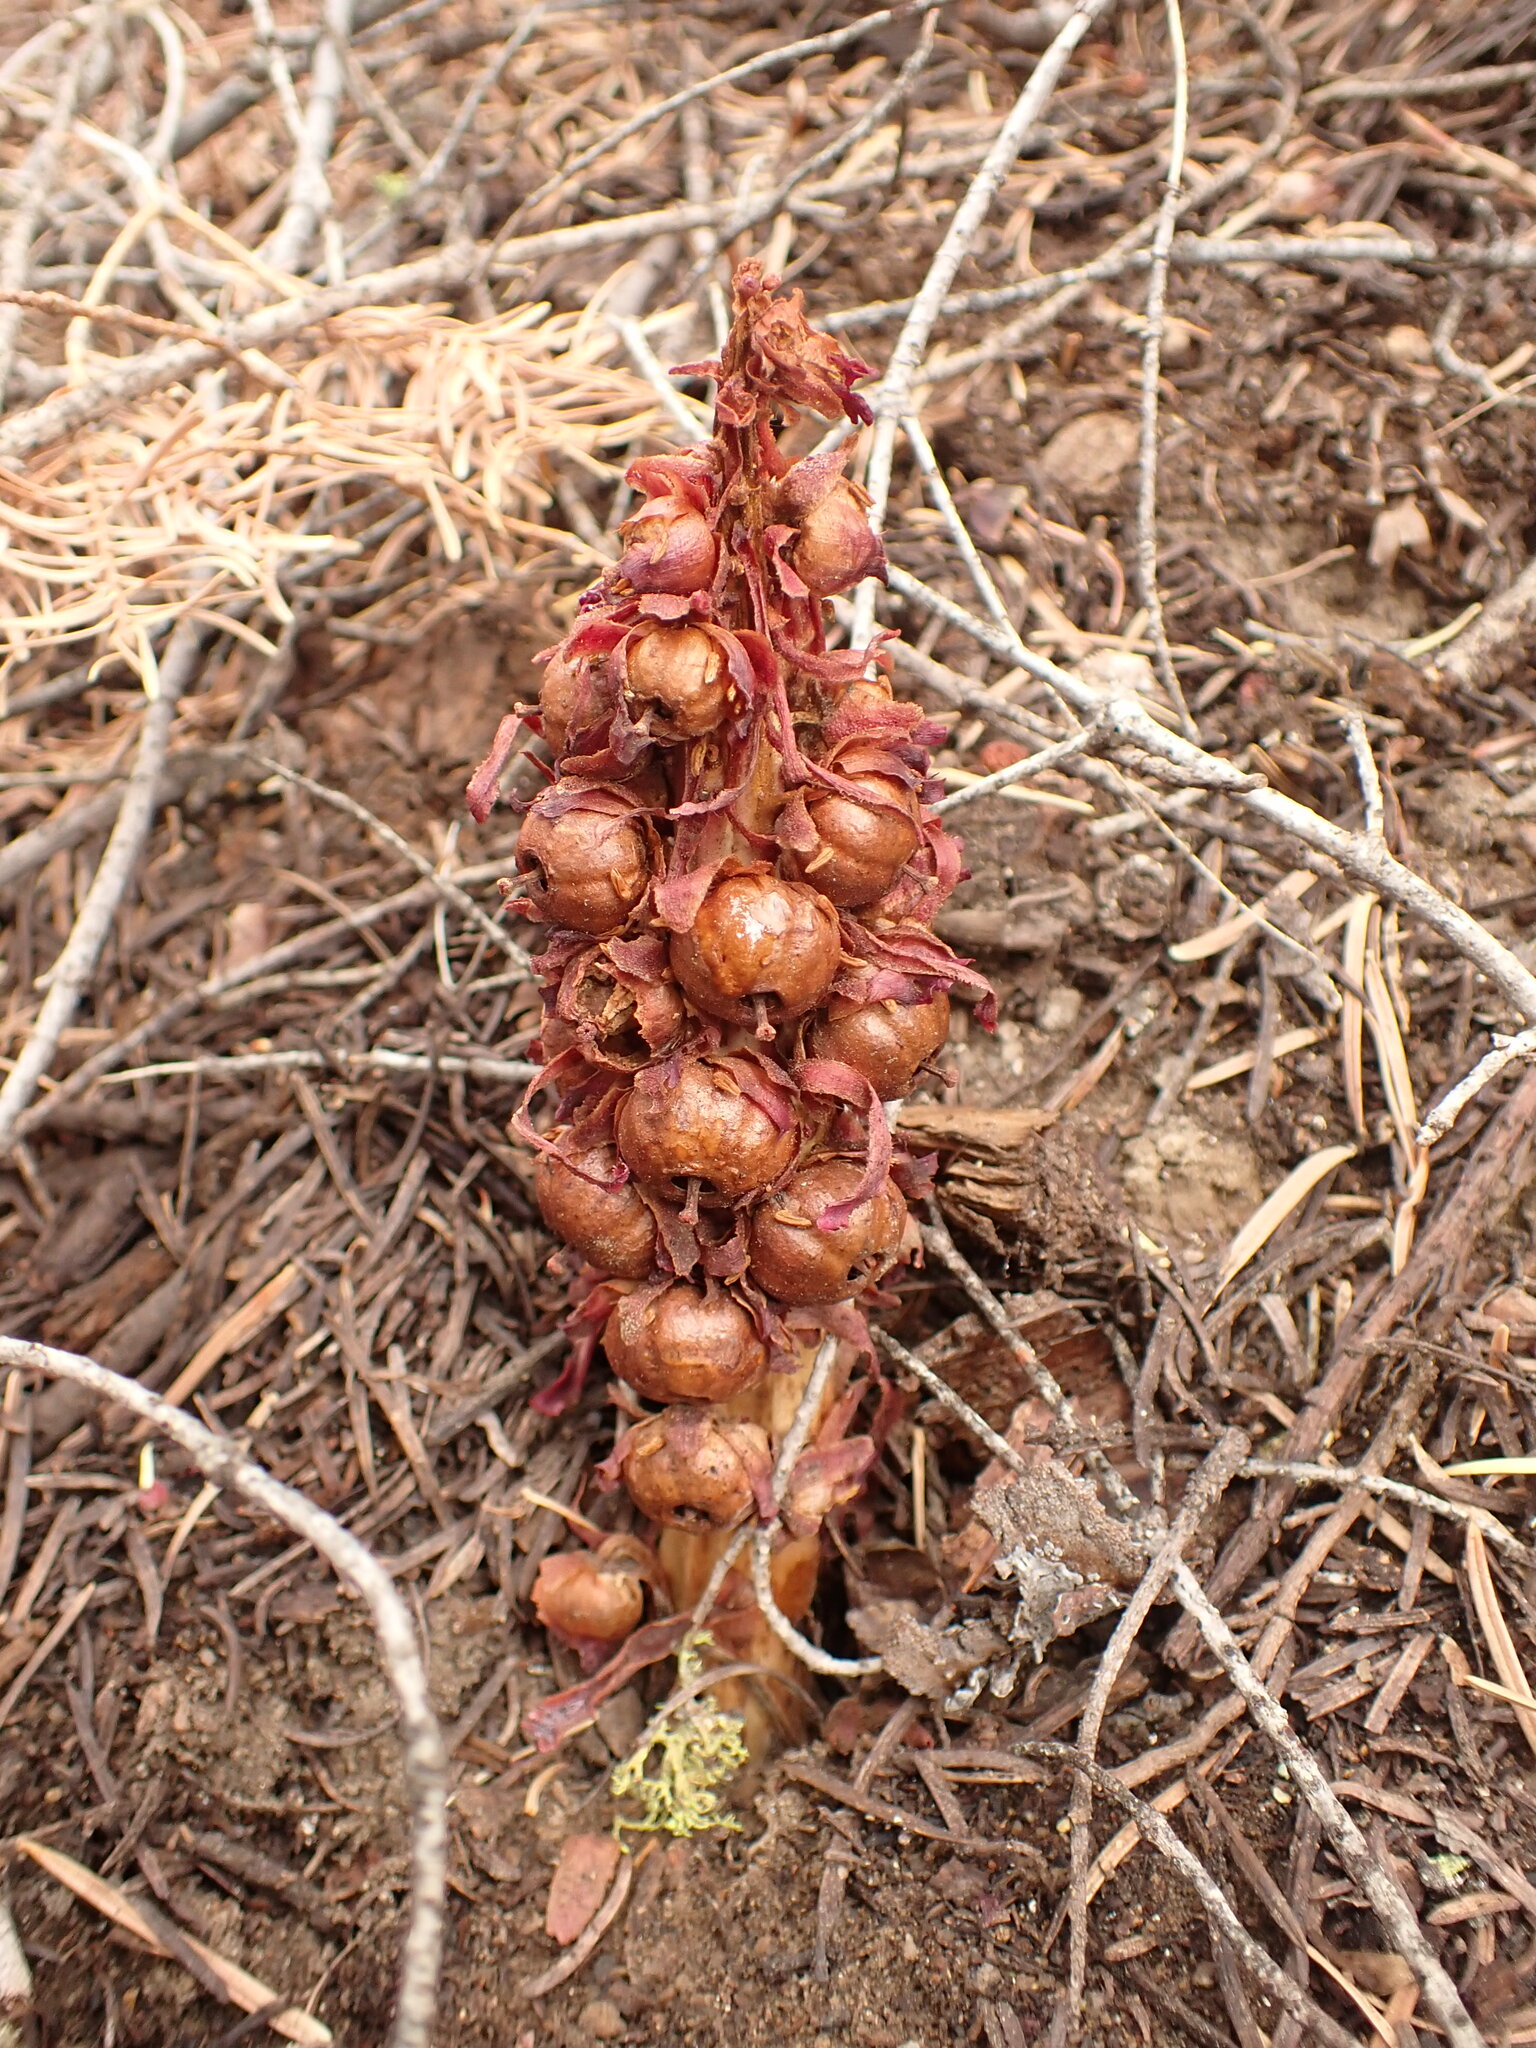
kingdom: Plantae
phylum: Tracheophyta
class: Magnoliopsida
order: Ericales
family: Ericaceae
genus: Sarcodes
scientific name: Sarcodes sanguinea
